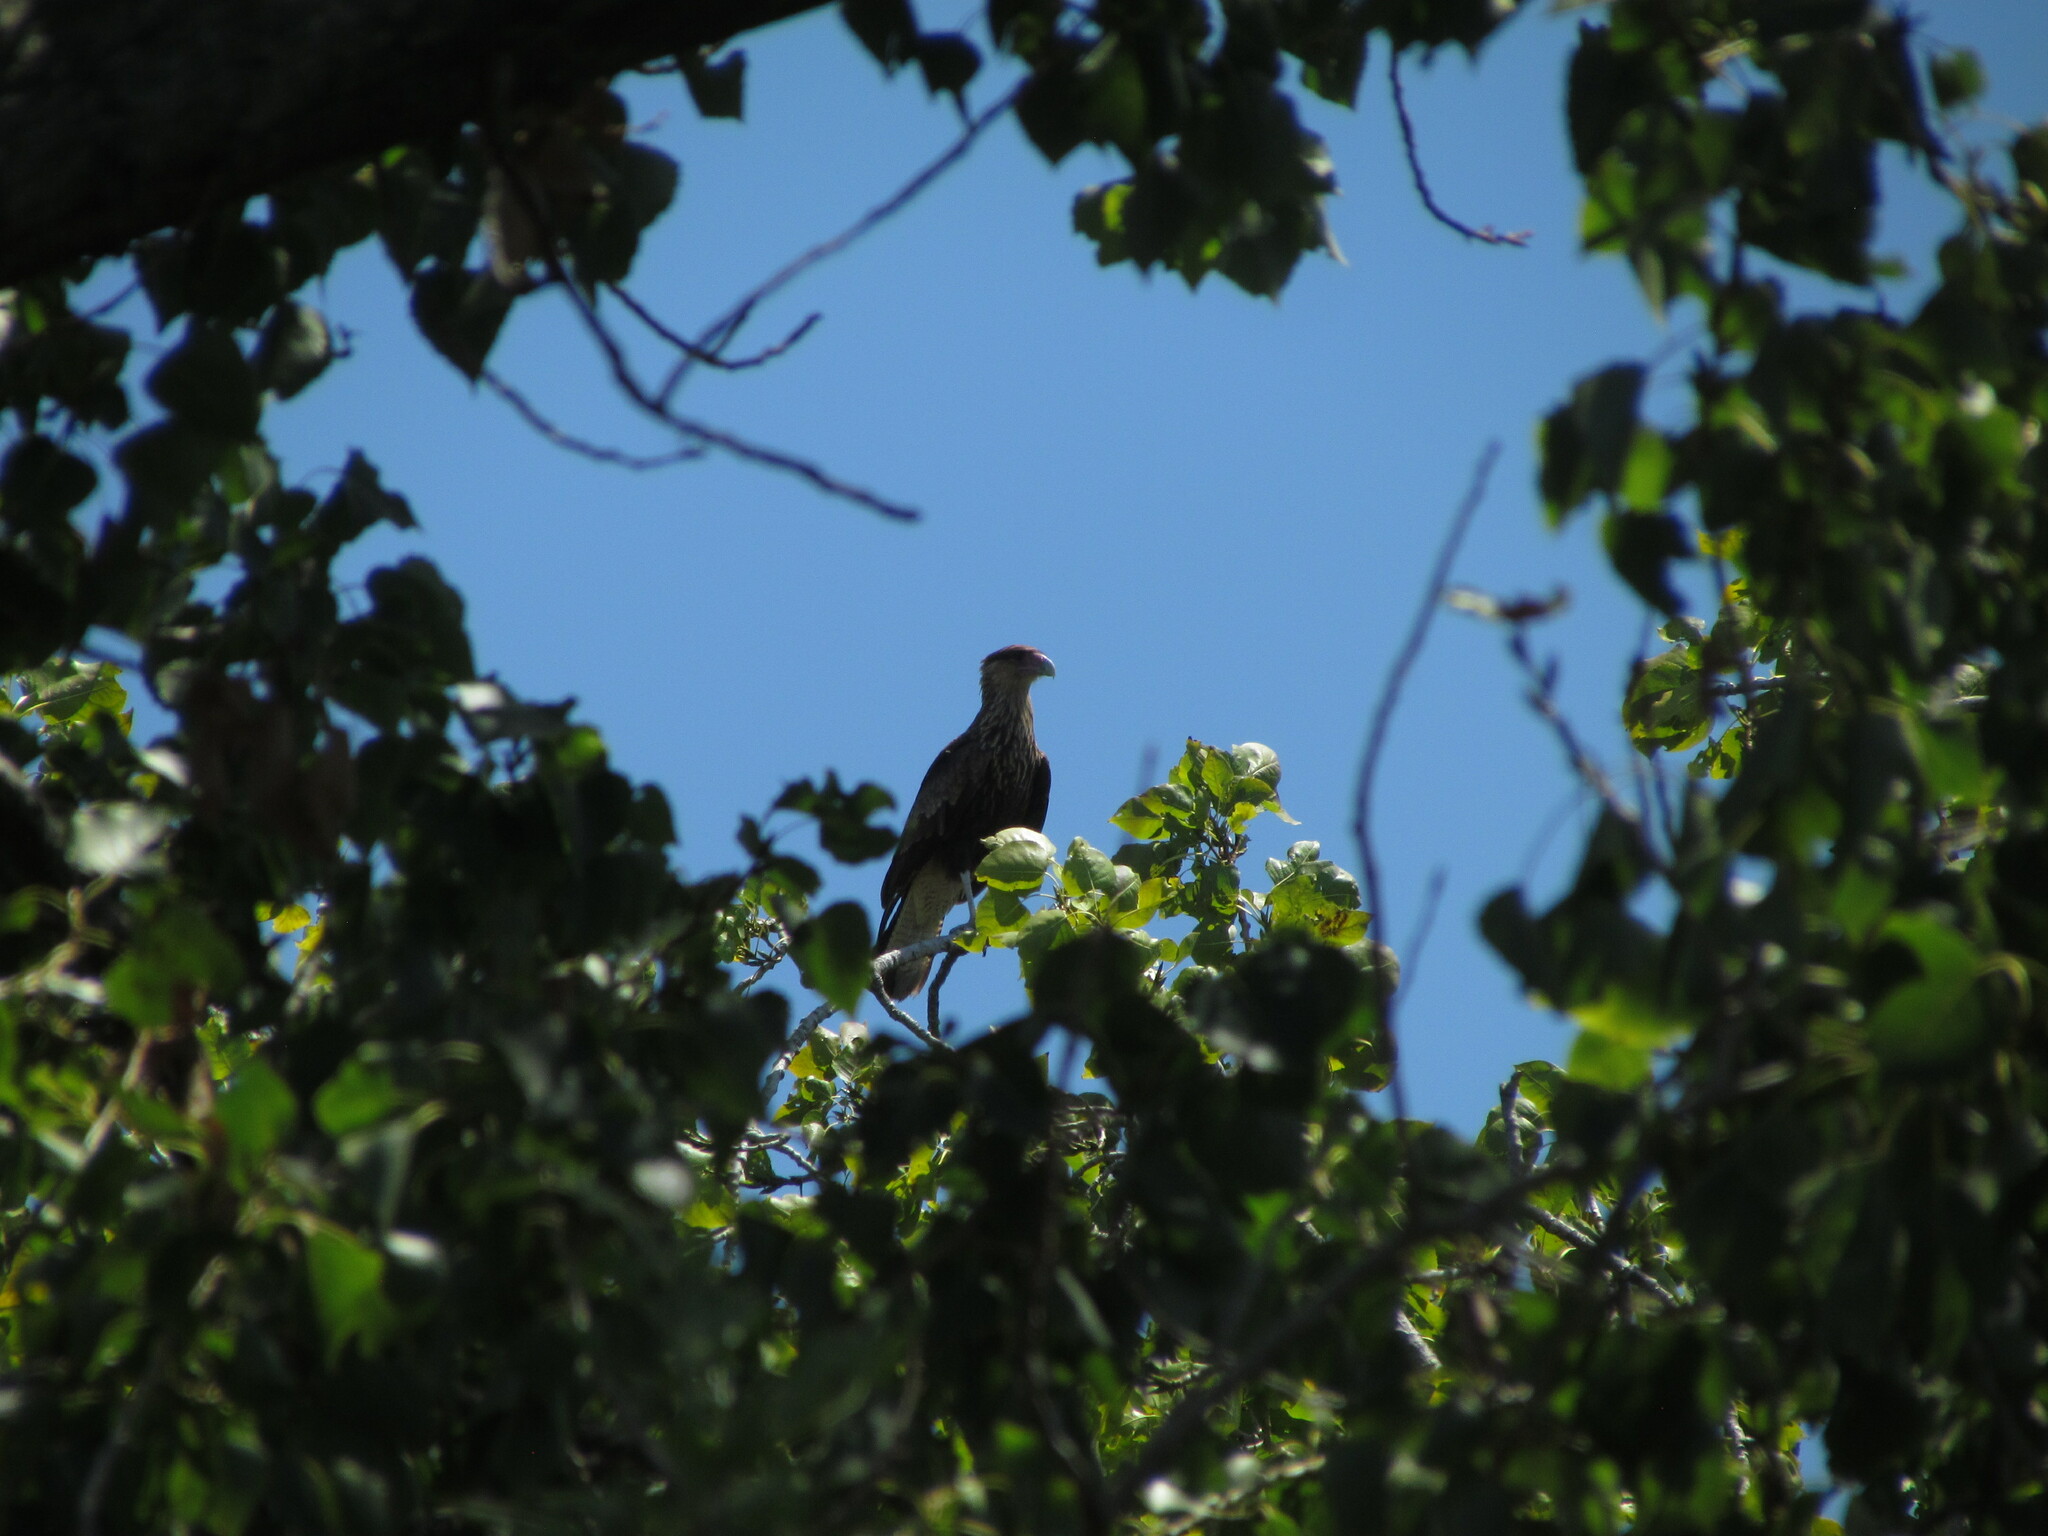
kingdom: Animalia
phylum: Chordata
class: Aves
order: Falconiformes
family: Falconidae
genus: Caracara
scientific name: Caracara plancus
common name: Southern caracara
